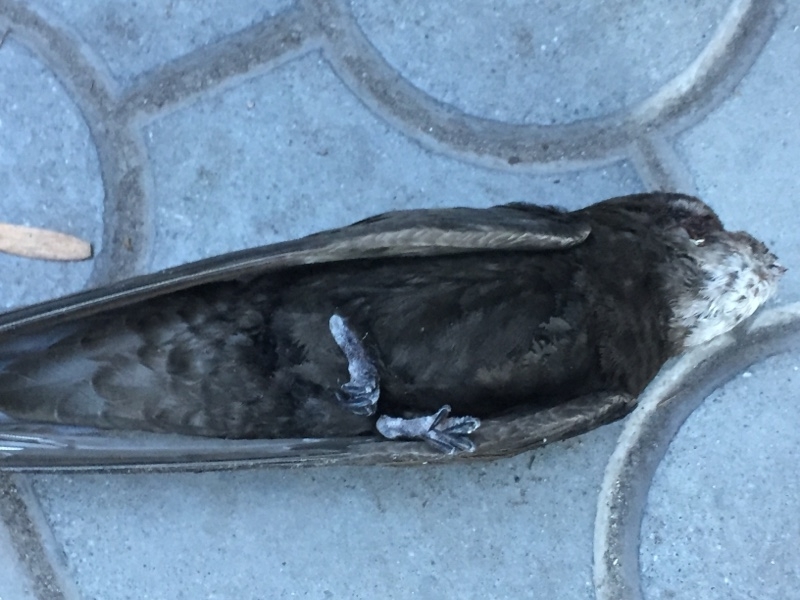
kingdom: Animalia
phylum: Chordata
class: Aves
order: Apodiformes
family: Apodidae
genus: Apus
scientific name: Apus apus
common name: Common swift
